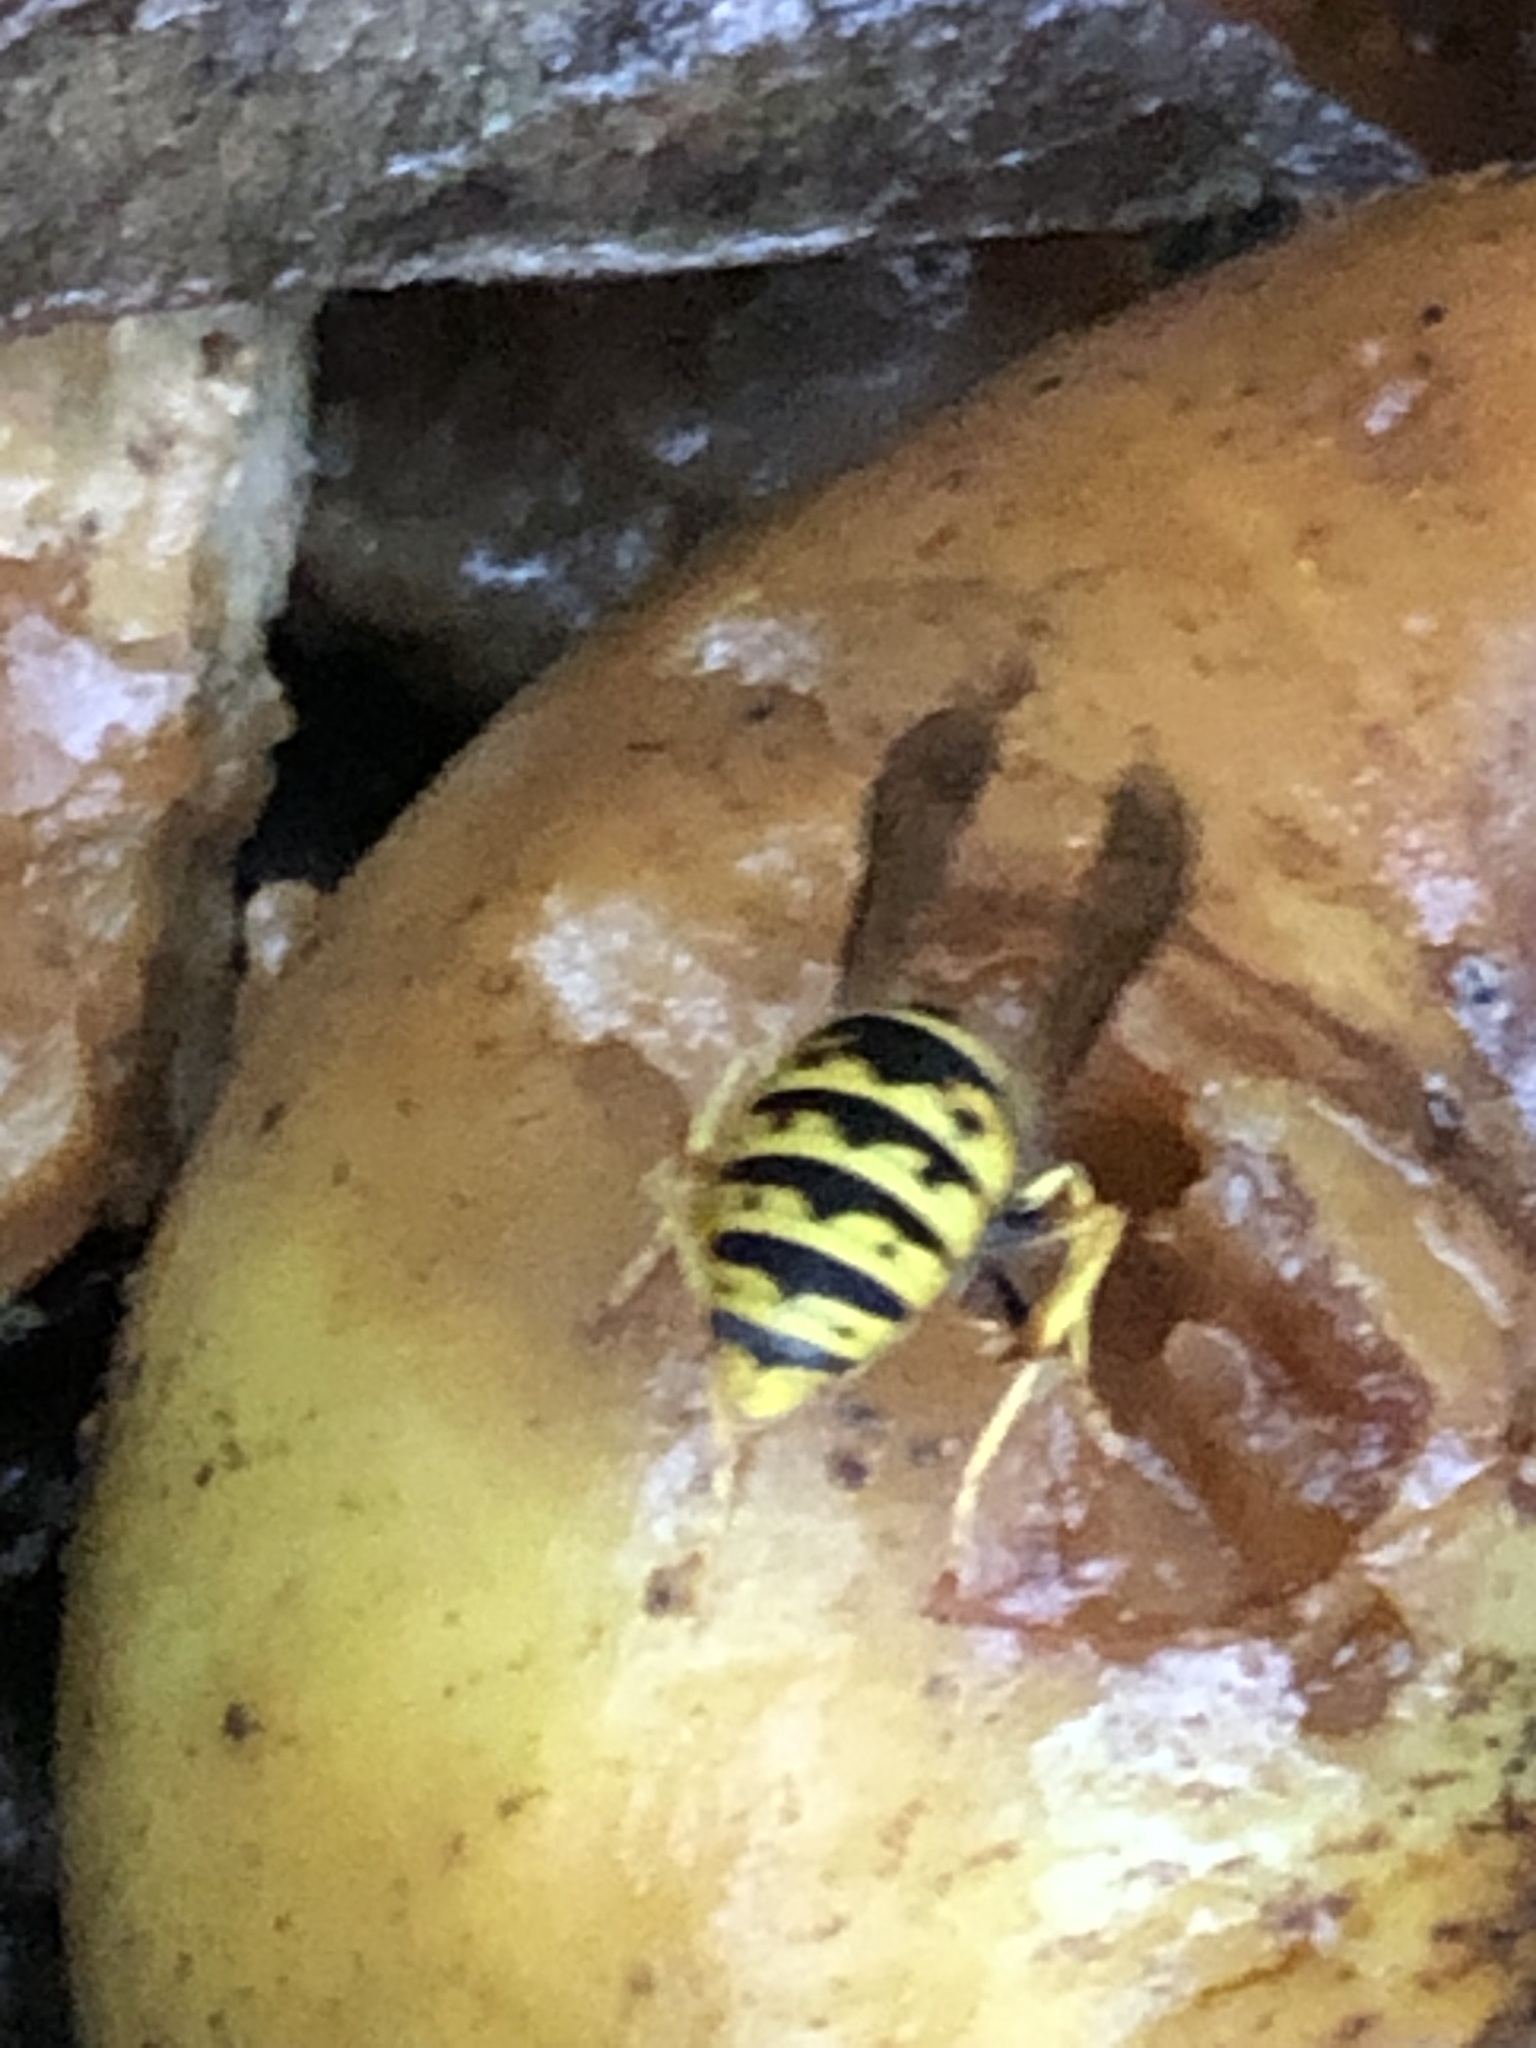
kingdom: Animalia
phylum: Arthropoda
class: Insecta
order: Hymenoptera
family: Vespidae
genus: Vespula
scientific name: Vespula germanica
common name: German wasp
